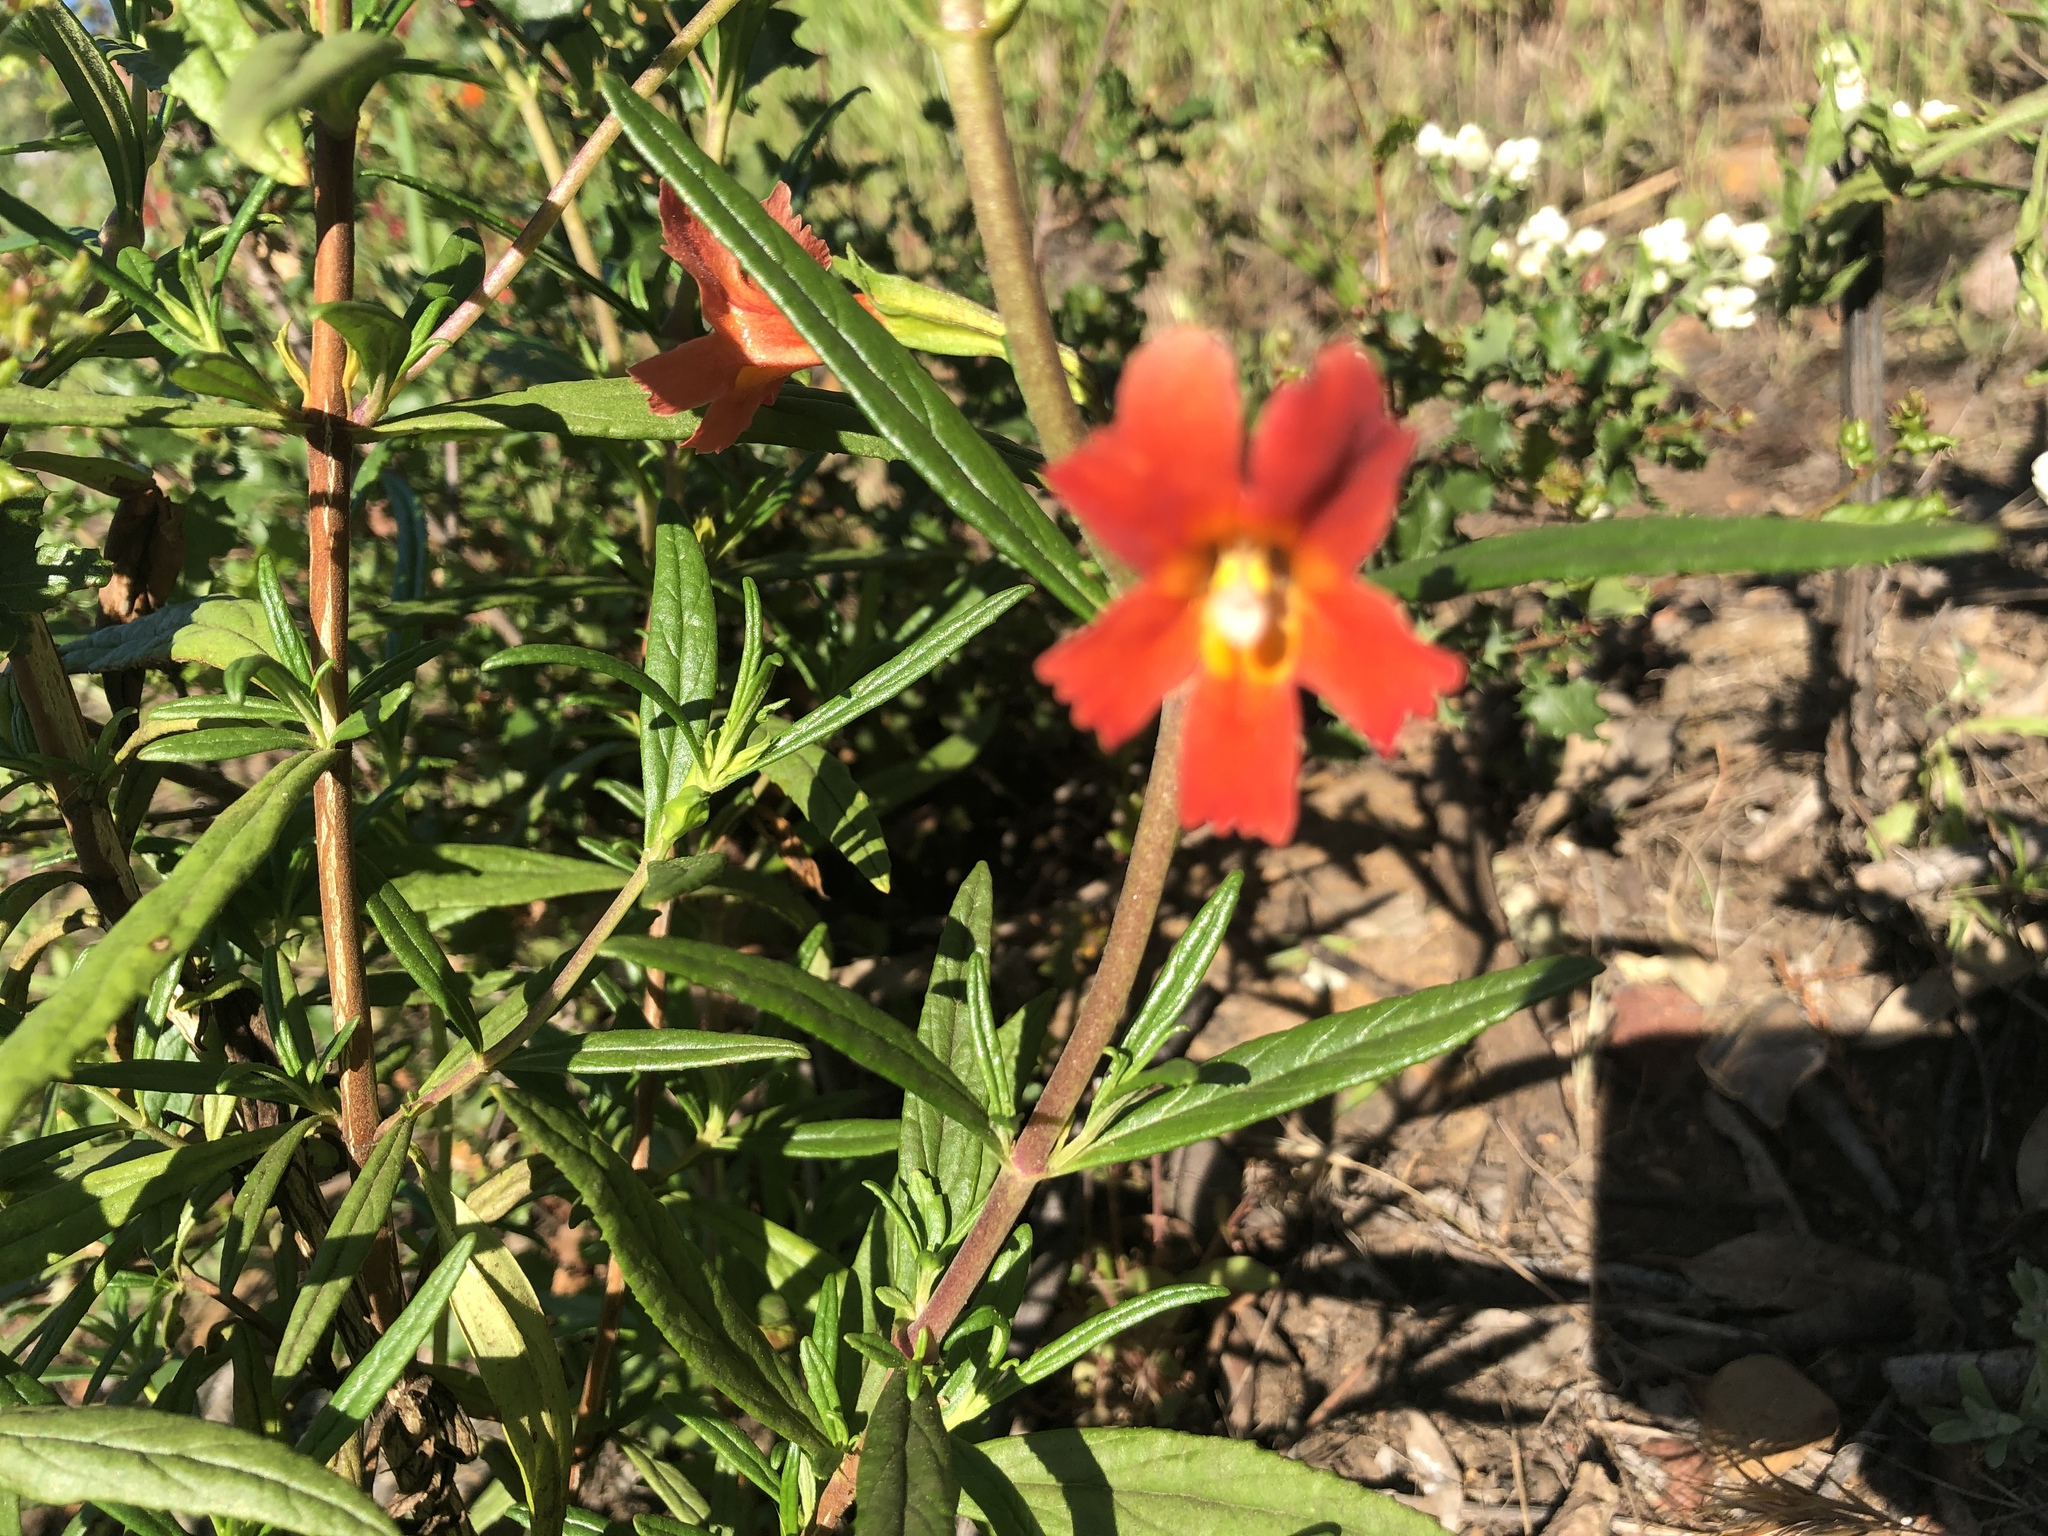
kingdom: Plantae
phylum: Tracheophyta
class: Magnoliopsida
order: Lamiales
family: Phrymaceae
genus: Diplacus
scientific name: Diplacus puniceus
